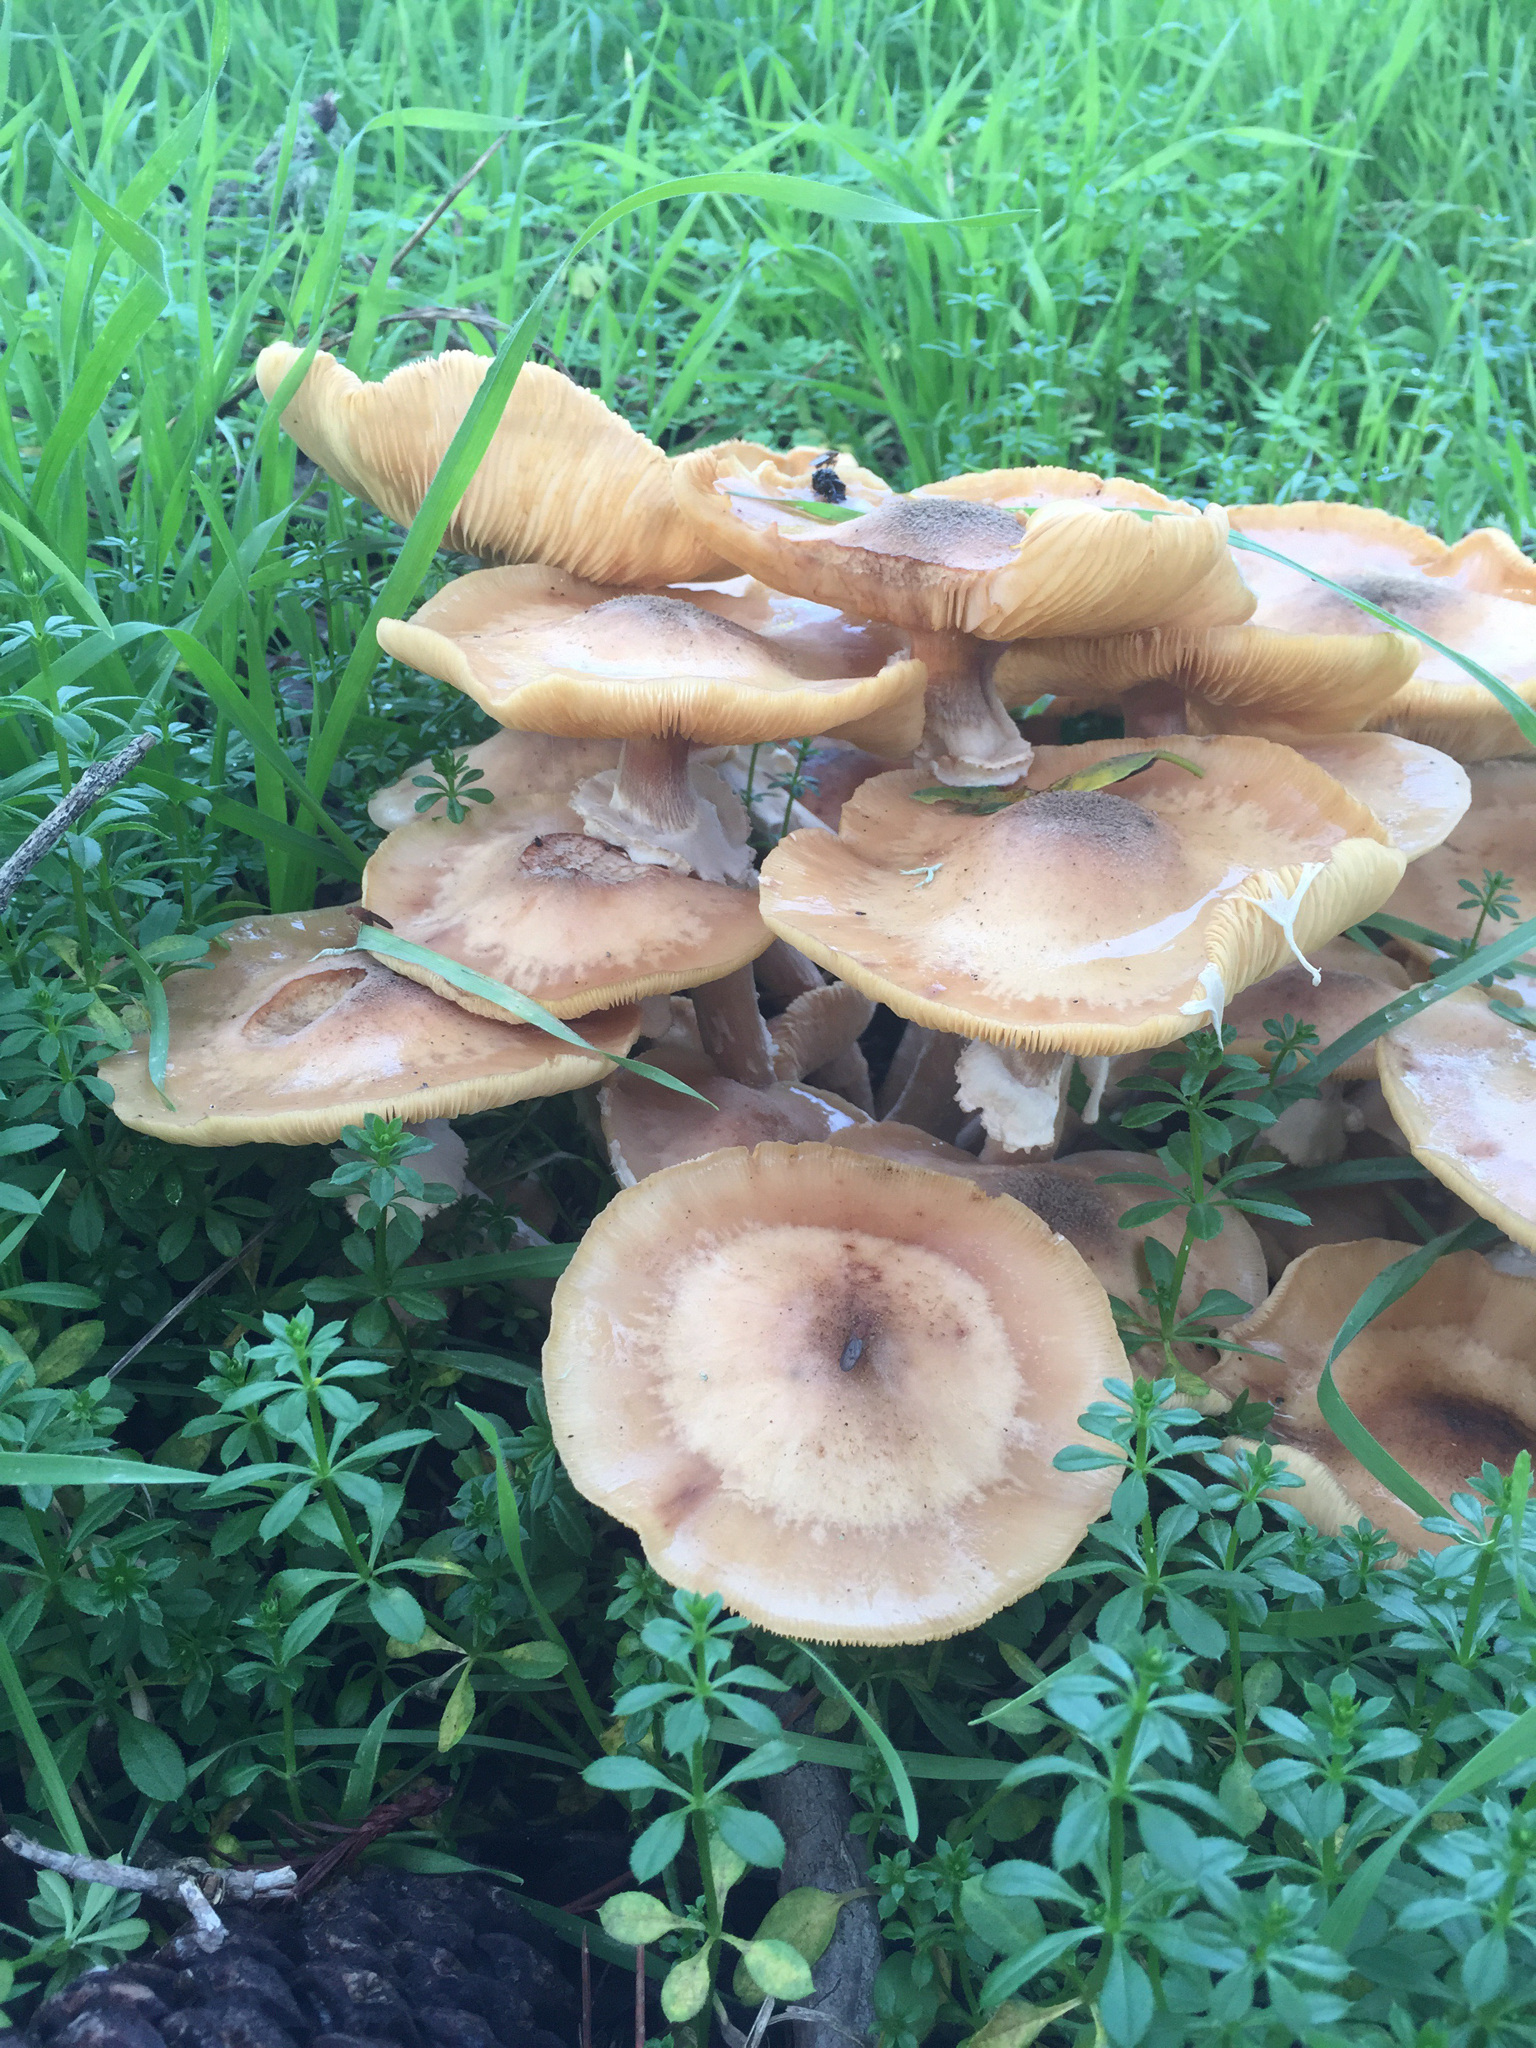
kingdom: Fungi
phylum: Basidiomycota
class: Agaricomycetes
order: Agaricales
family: Physalacriaceae
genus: Armillaria
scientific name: Armillaria mellea
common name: Honey fungus
